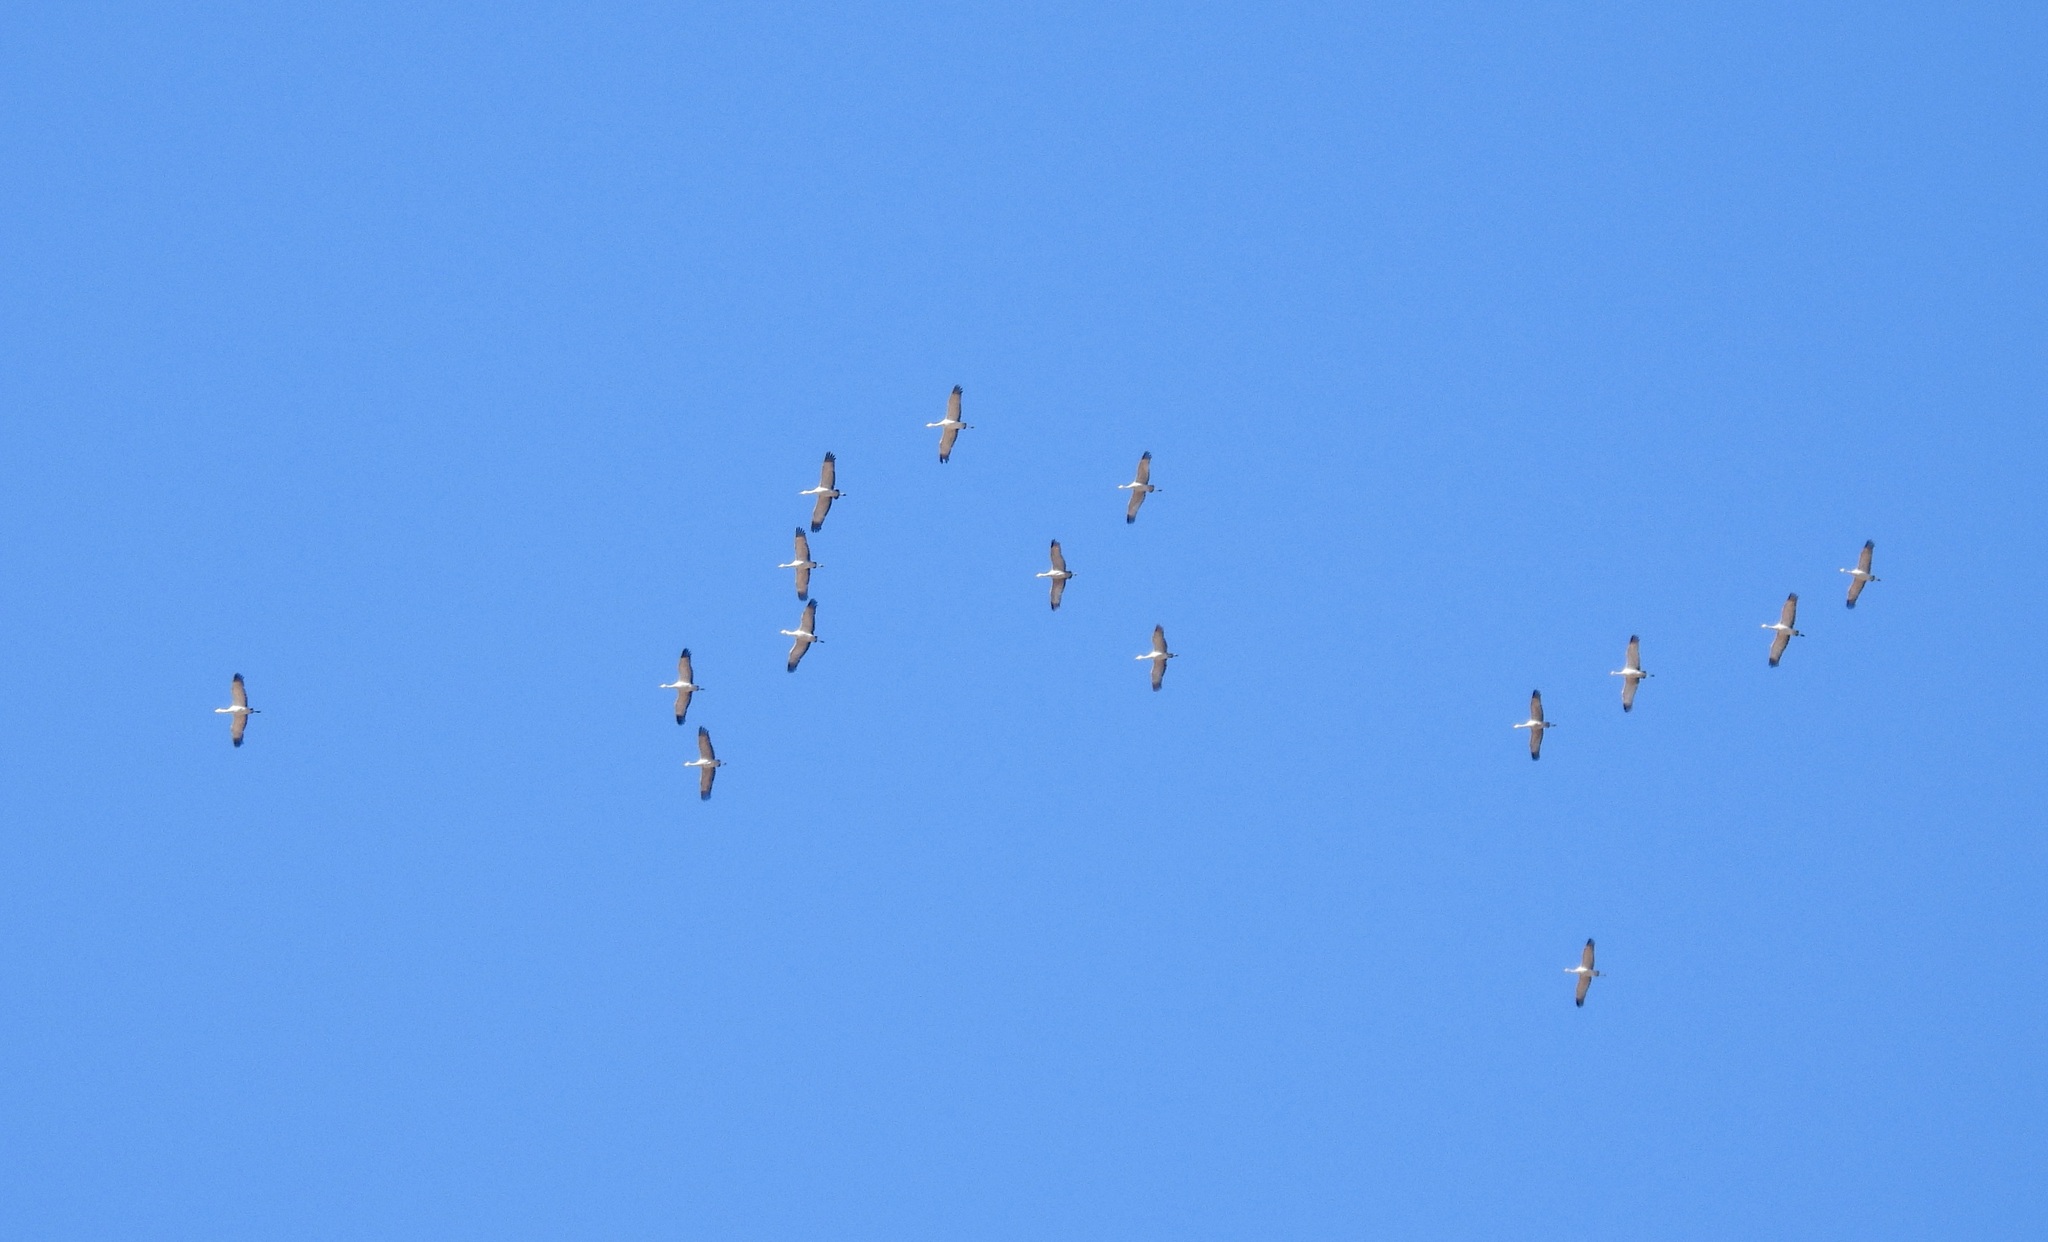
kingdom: Animalia
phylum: Chordata
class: Aves
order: Gruiformes
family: Gruidae
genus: Grus
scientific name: Grus canadensis
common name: Sandhill crane
